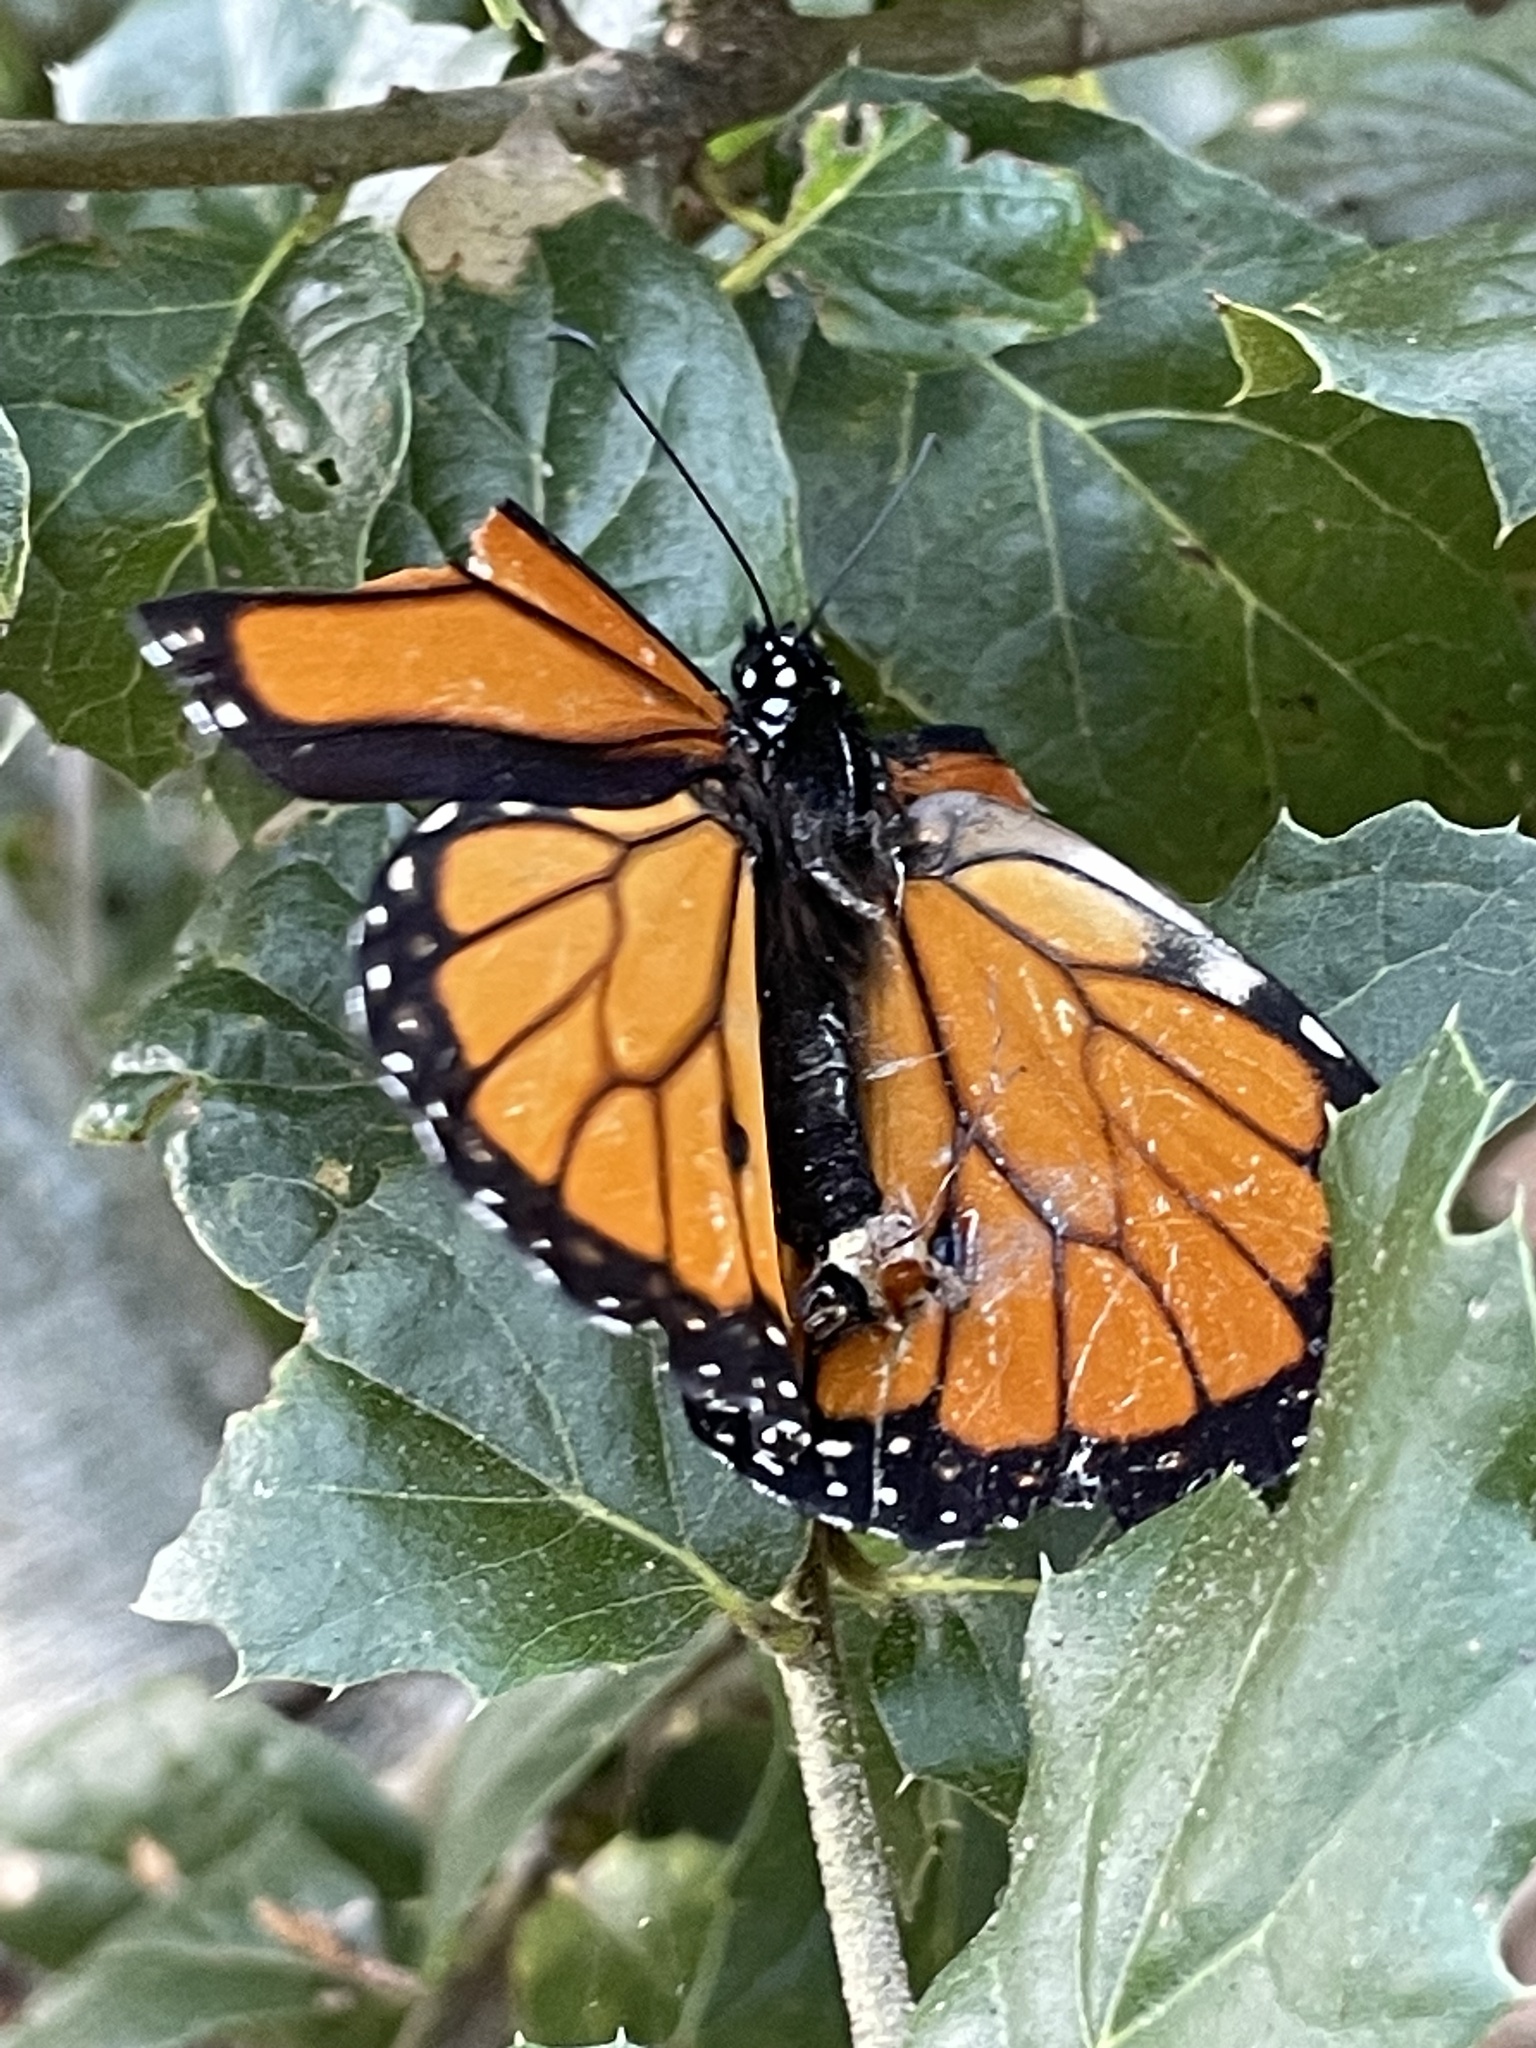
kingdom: Animalia
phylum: Arthropoda
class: Insecta
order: Lepidoptera
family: Nymphalidae
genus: Danaus
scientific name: Danaus plexippus
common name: Monarch
